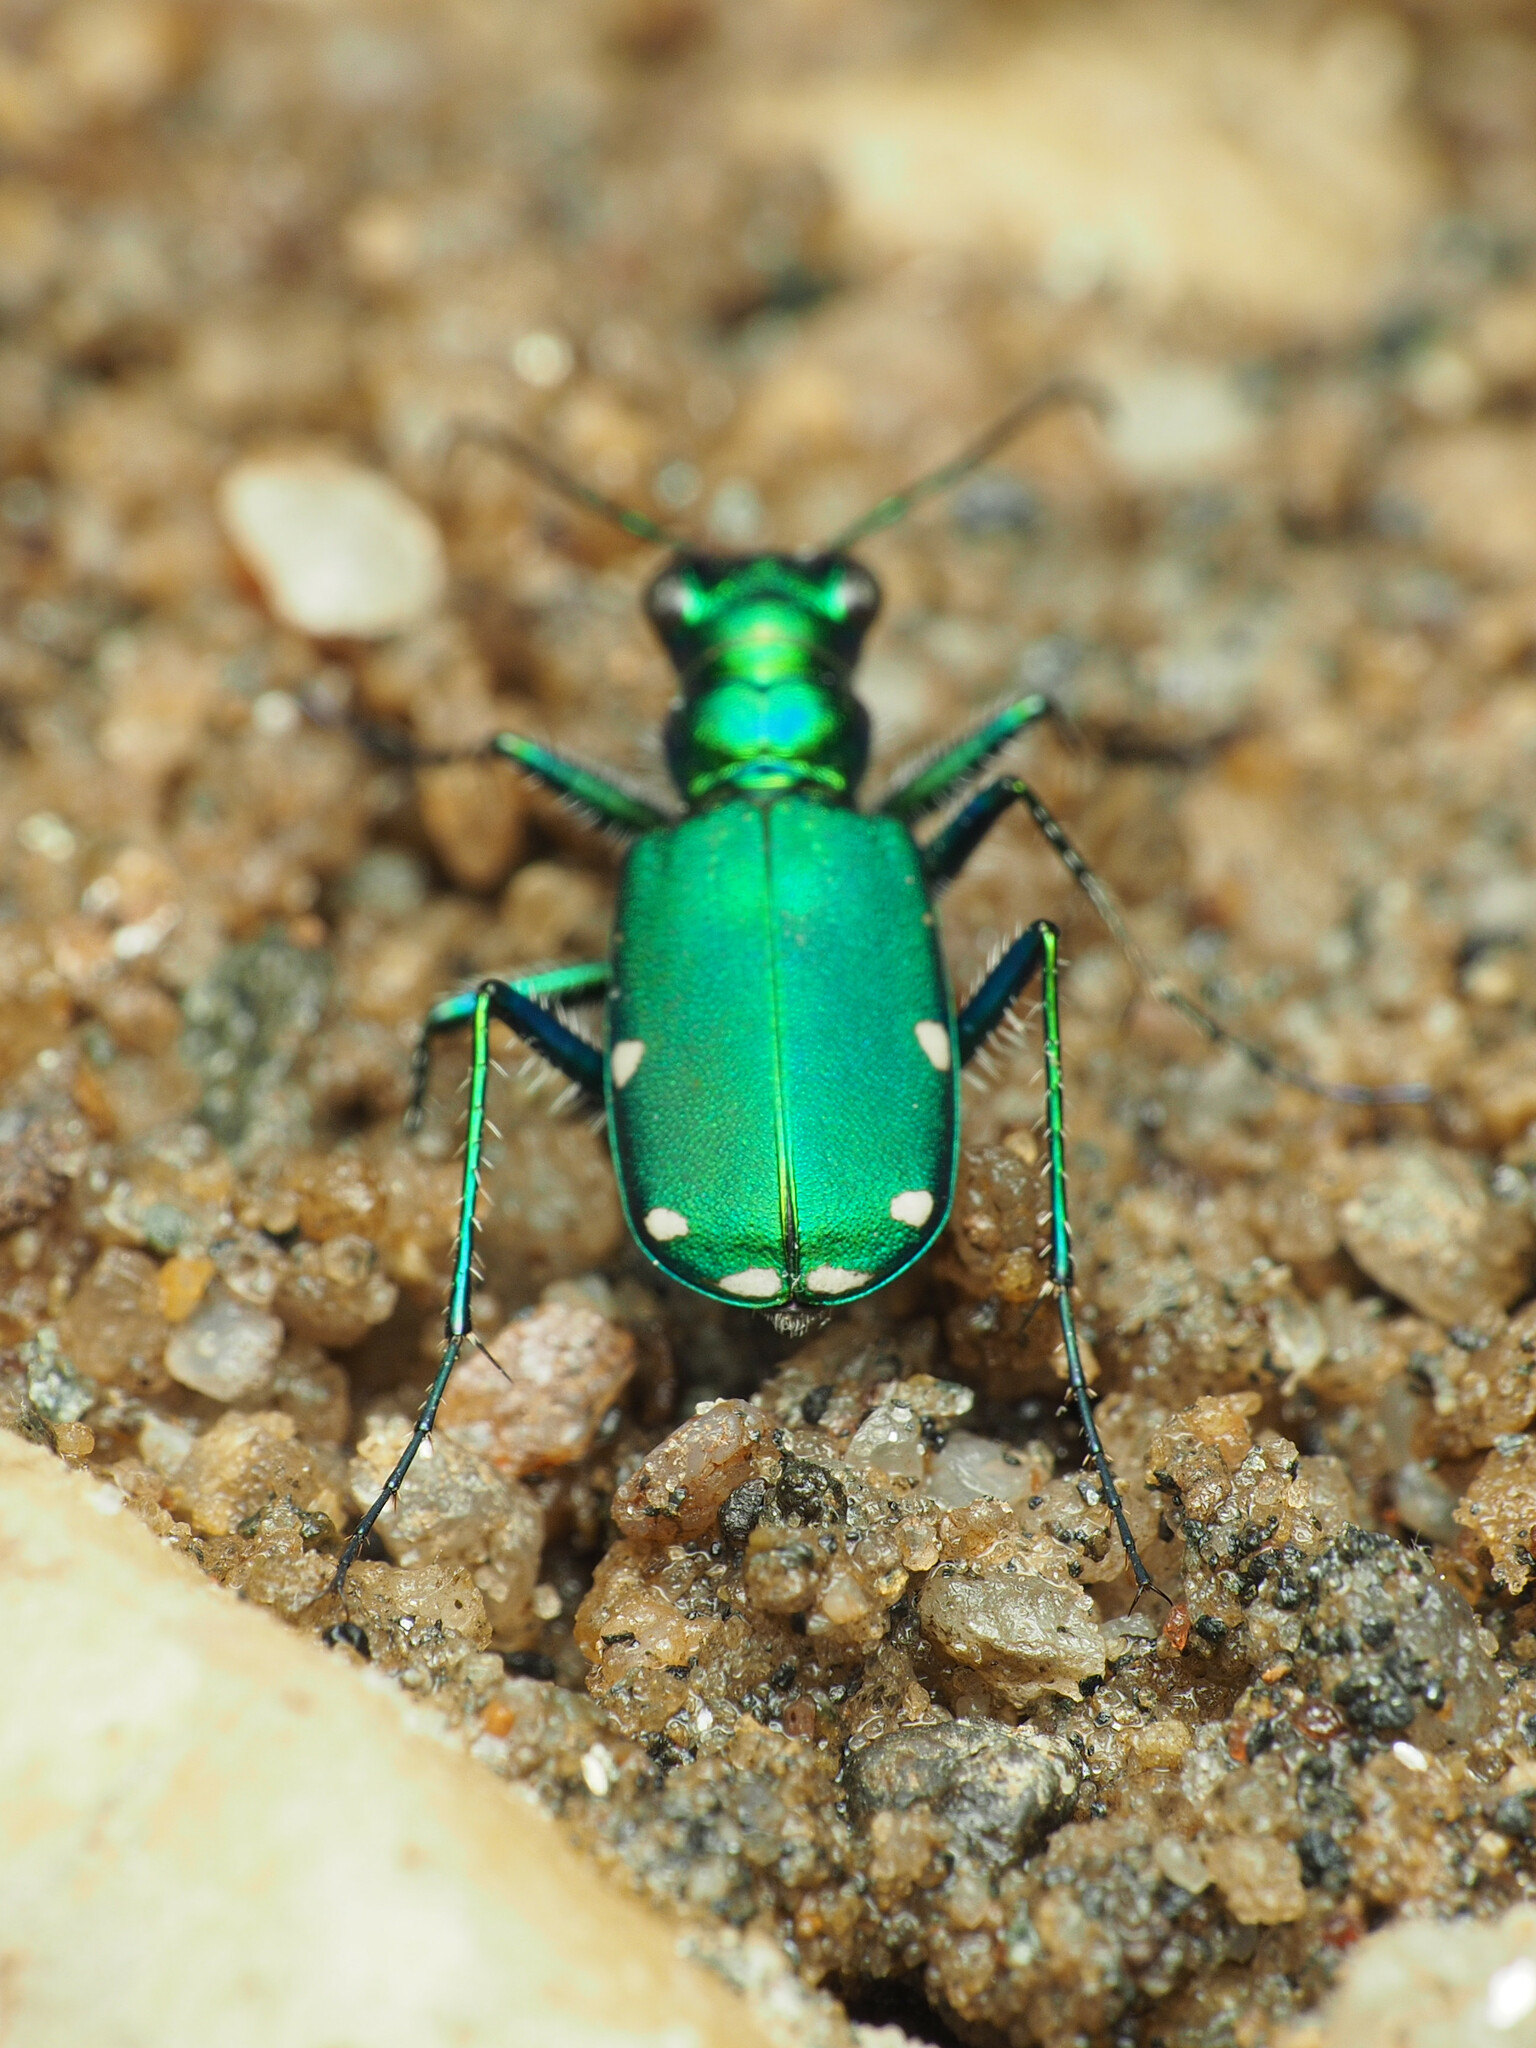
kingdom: Animalia
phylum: Arthropoda
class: Insecta
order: Coleoptera
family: Carabidae
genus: Cicindela
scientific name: Cicindela sexguttata
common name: Six-spotted tiger beetle
